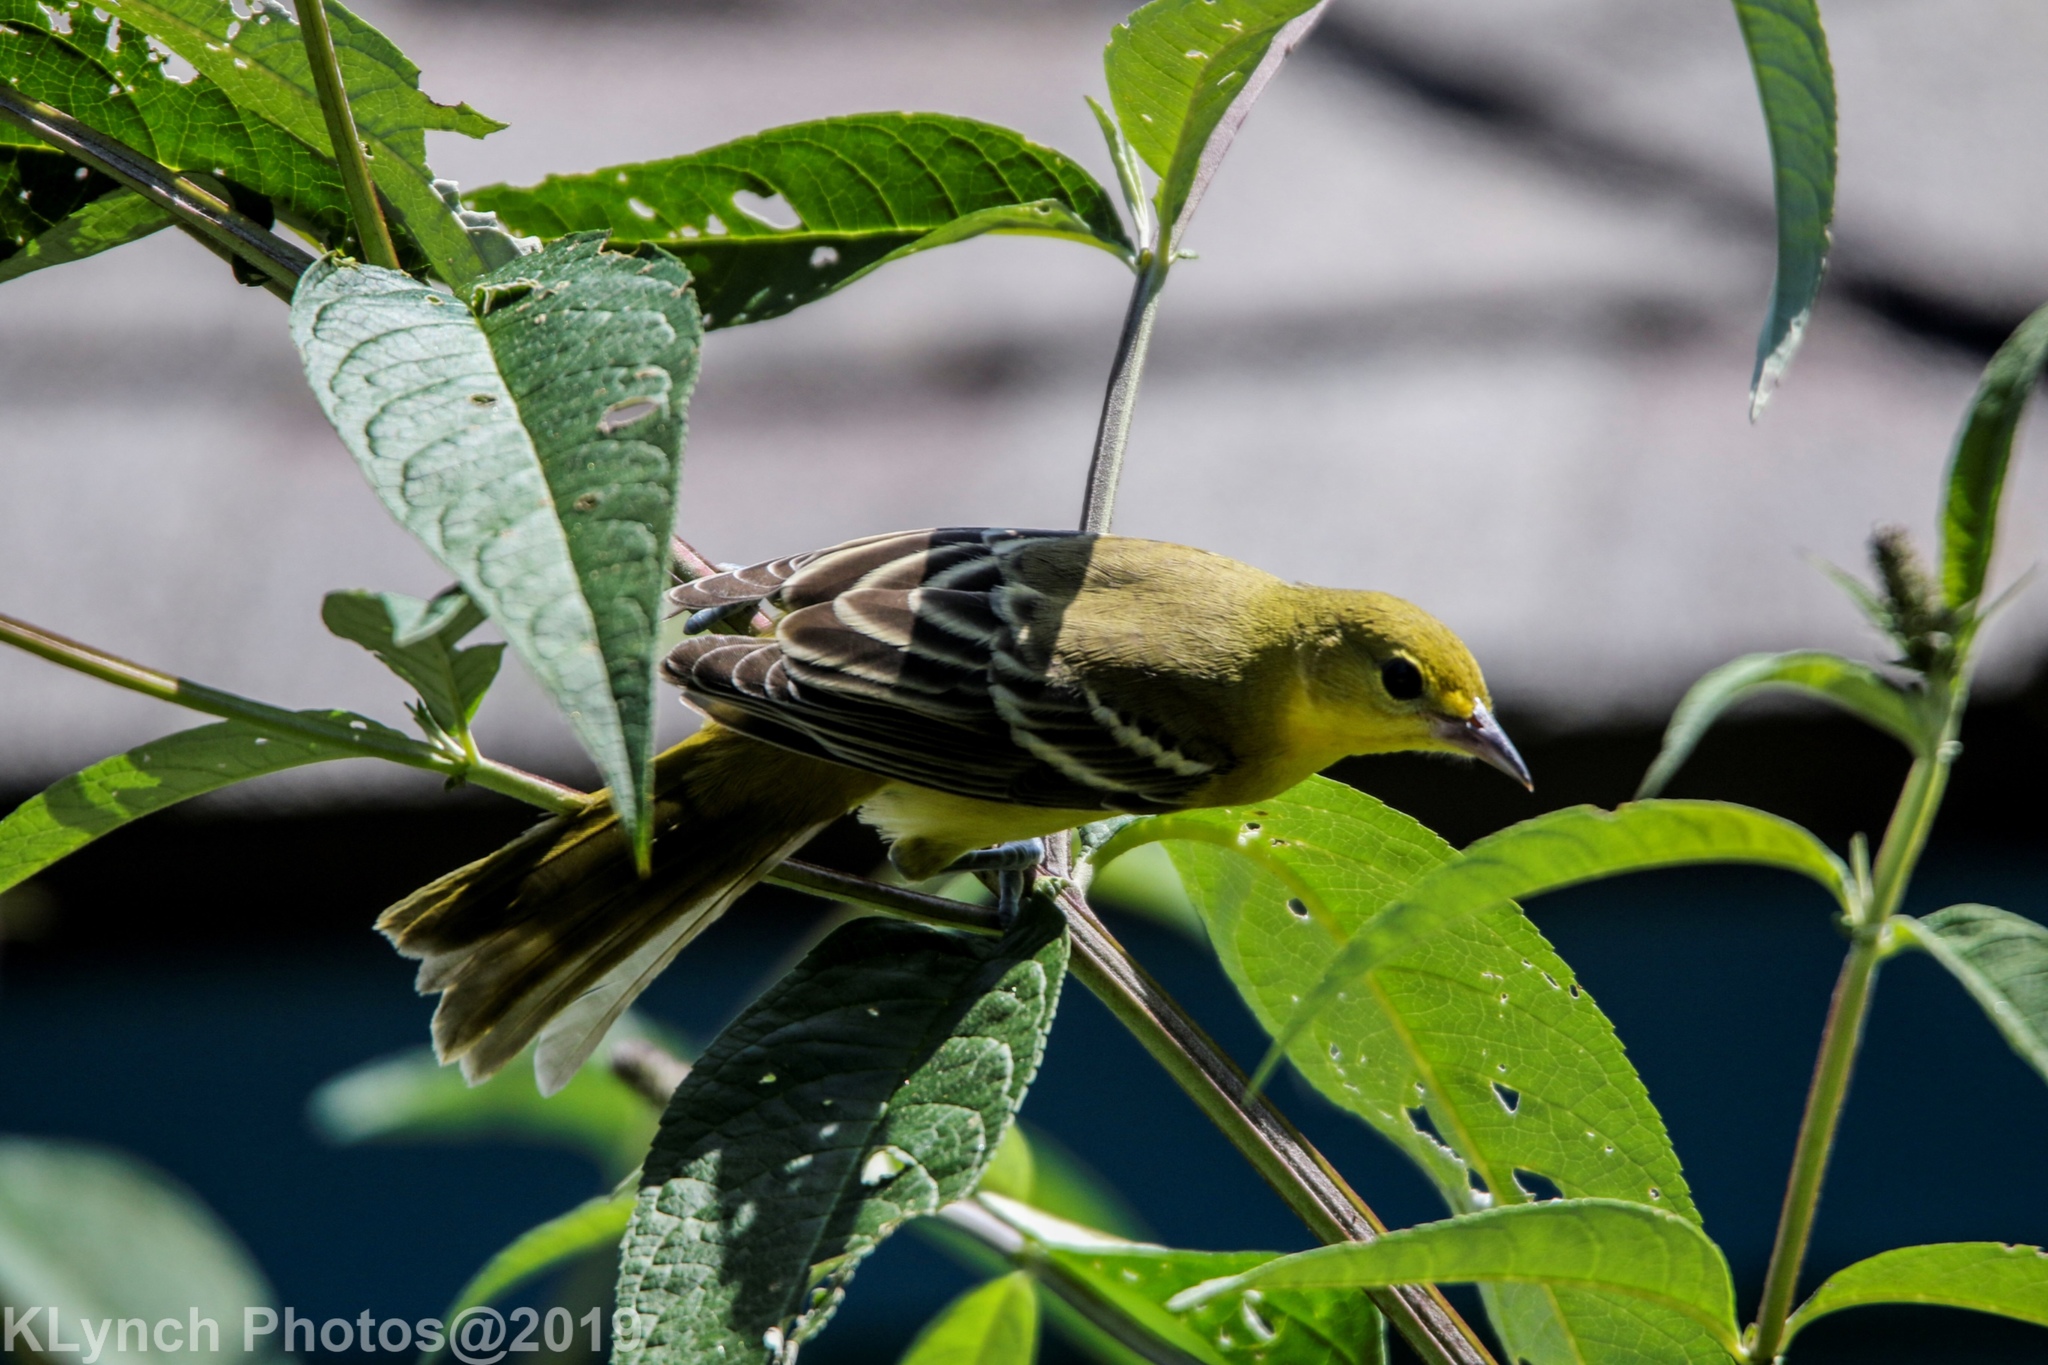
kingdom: Animalia
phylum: Chordata
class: Aves
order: Passeriformes
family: Icteridae
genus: Icterus
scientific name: Icterus spurius
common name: Orchard oriole
